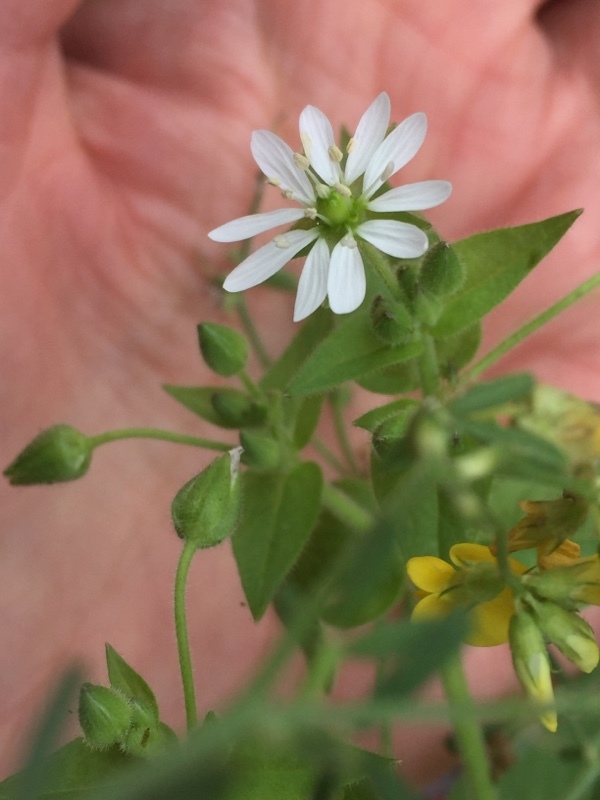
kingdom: Plantae
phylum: Tracheophyta
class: Magnoliopsida
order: Caryophyllales
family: Caryophyllaceae
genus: Stellaria
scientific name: Stellaria aquatica
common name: Water chickweed
